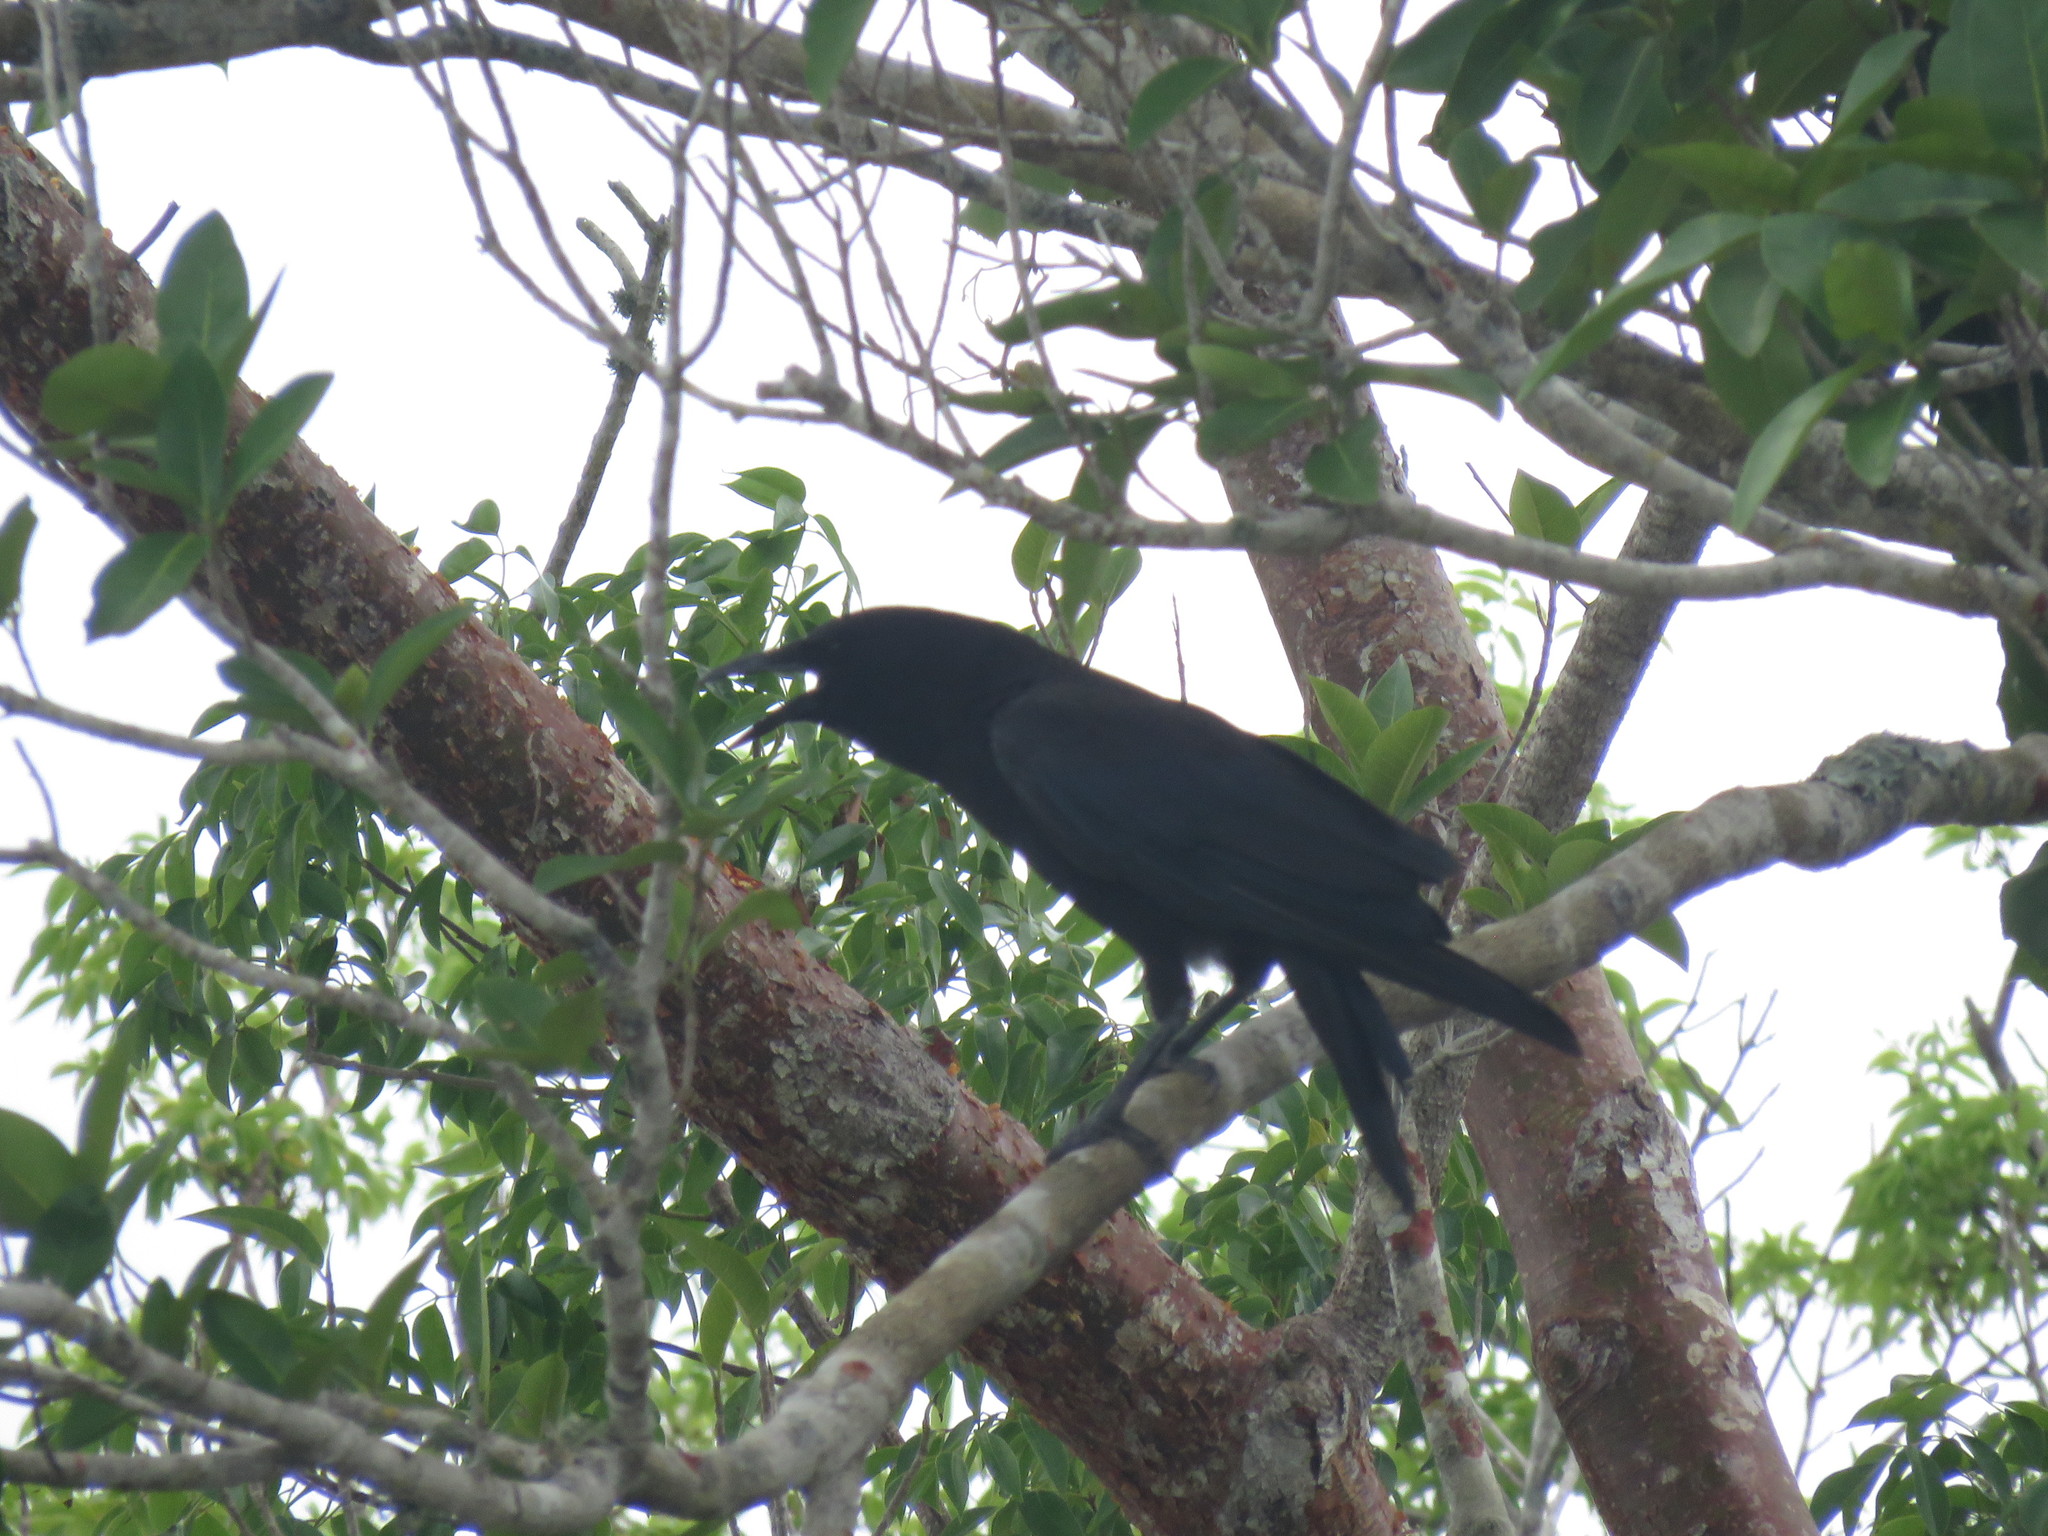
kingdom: Animalia
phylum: Chordata
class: Aves
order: Passeriformes
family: Corvidae
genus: Corvus
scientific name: Corvus brachyrhynchos
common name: American crow
